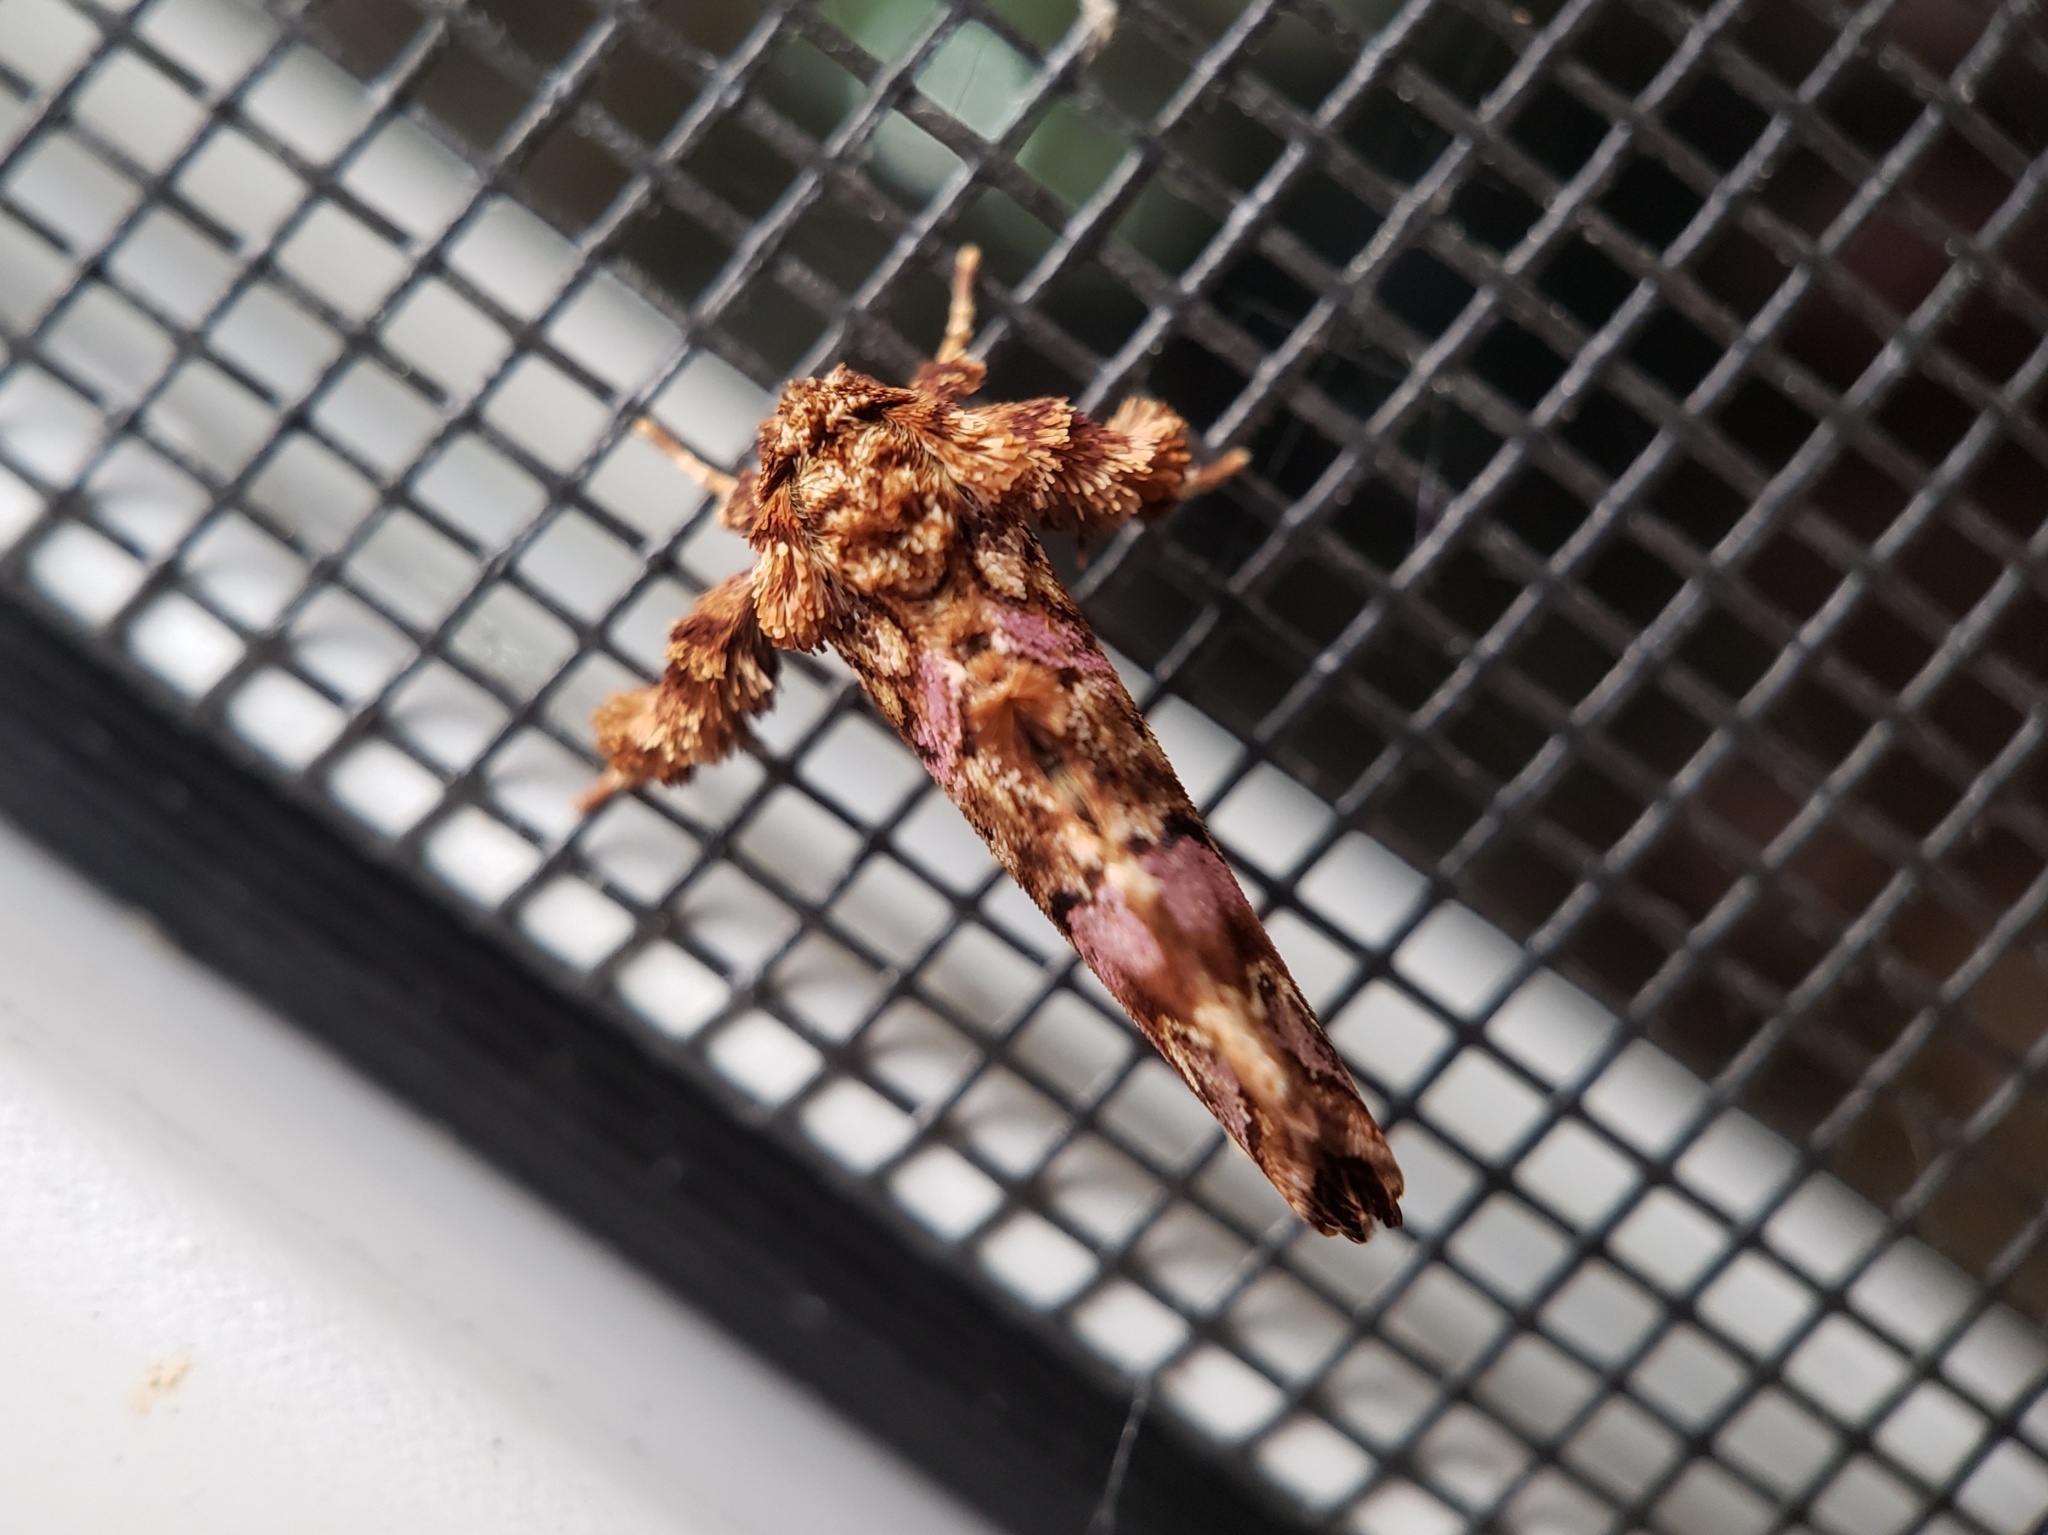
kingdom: Animalia
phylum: Arthropoda
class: Insecta
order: Lepidoptera
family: Noctuidae
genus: Callopistria
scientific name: Callopistria mollissima
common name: Pink-shaded fern moth
